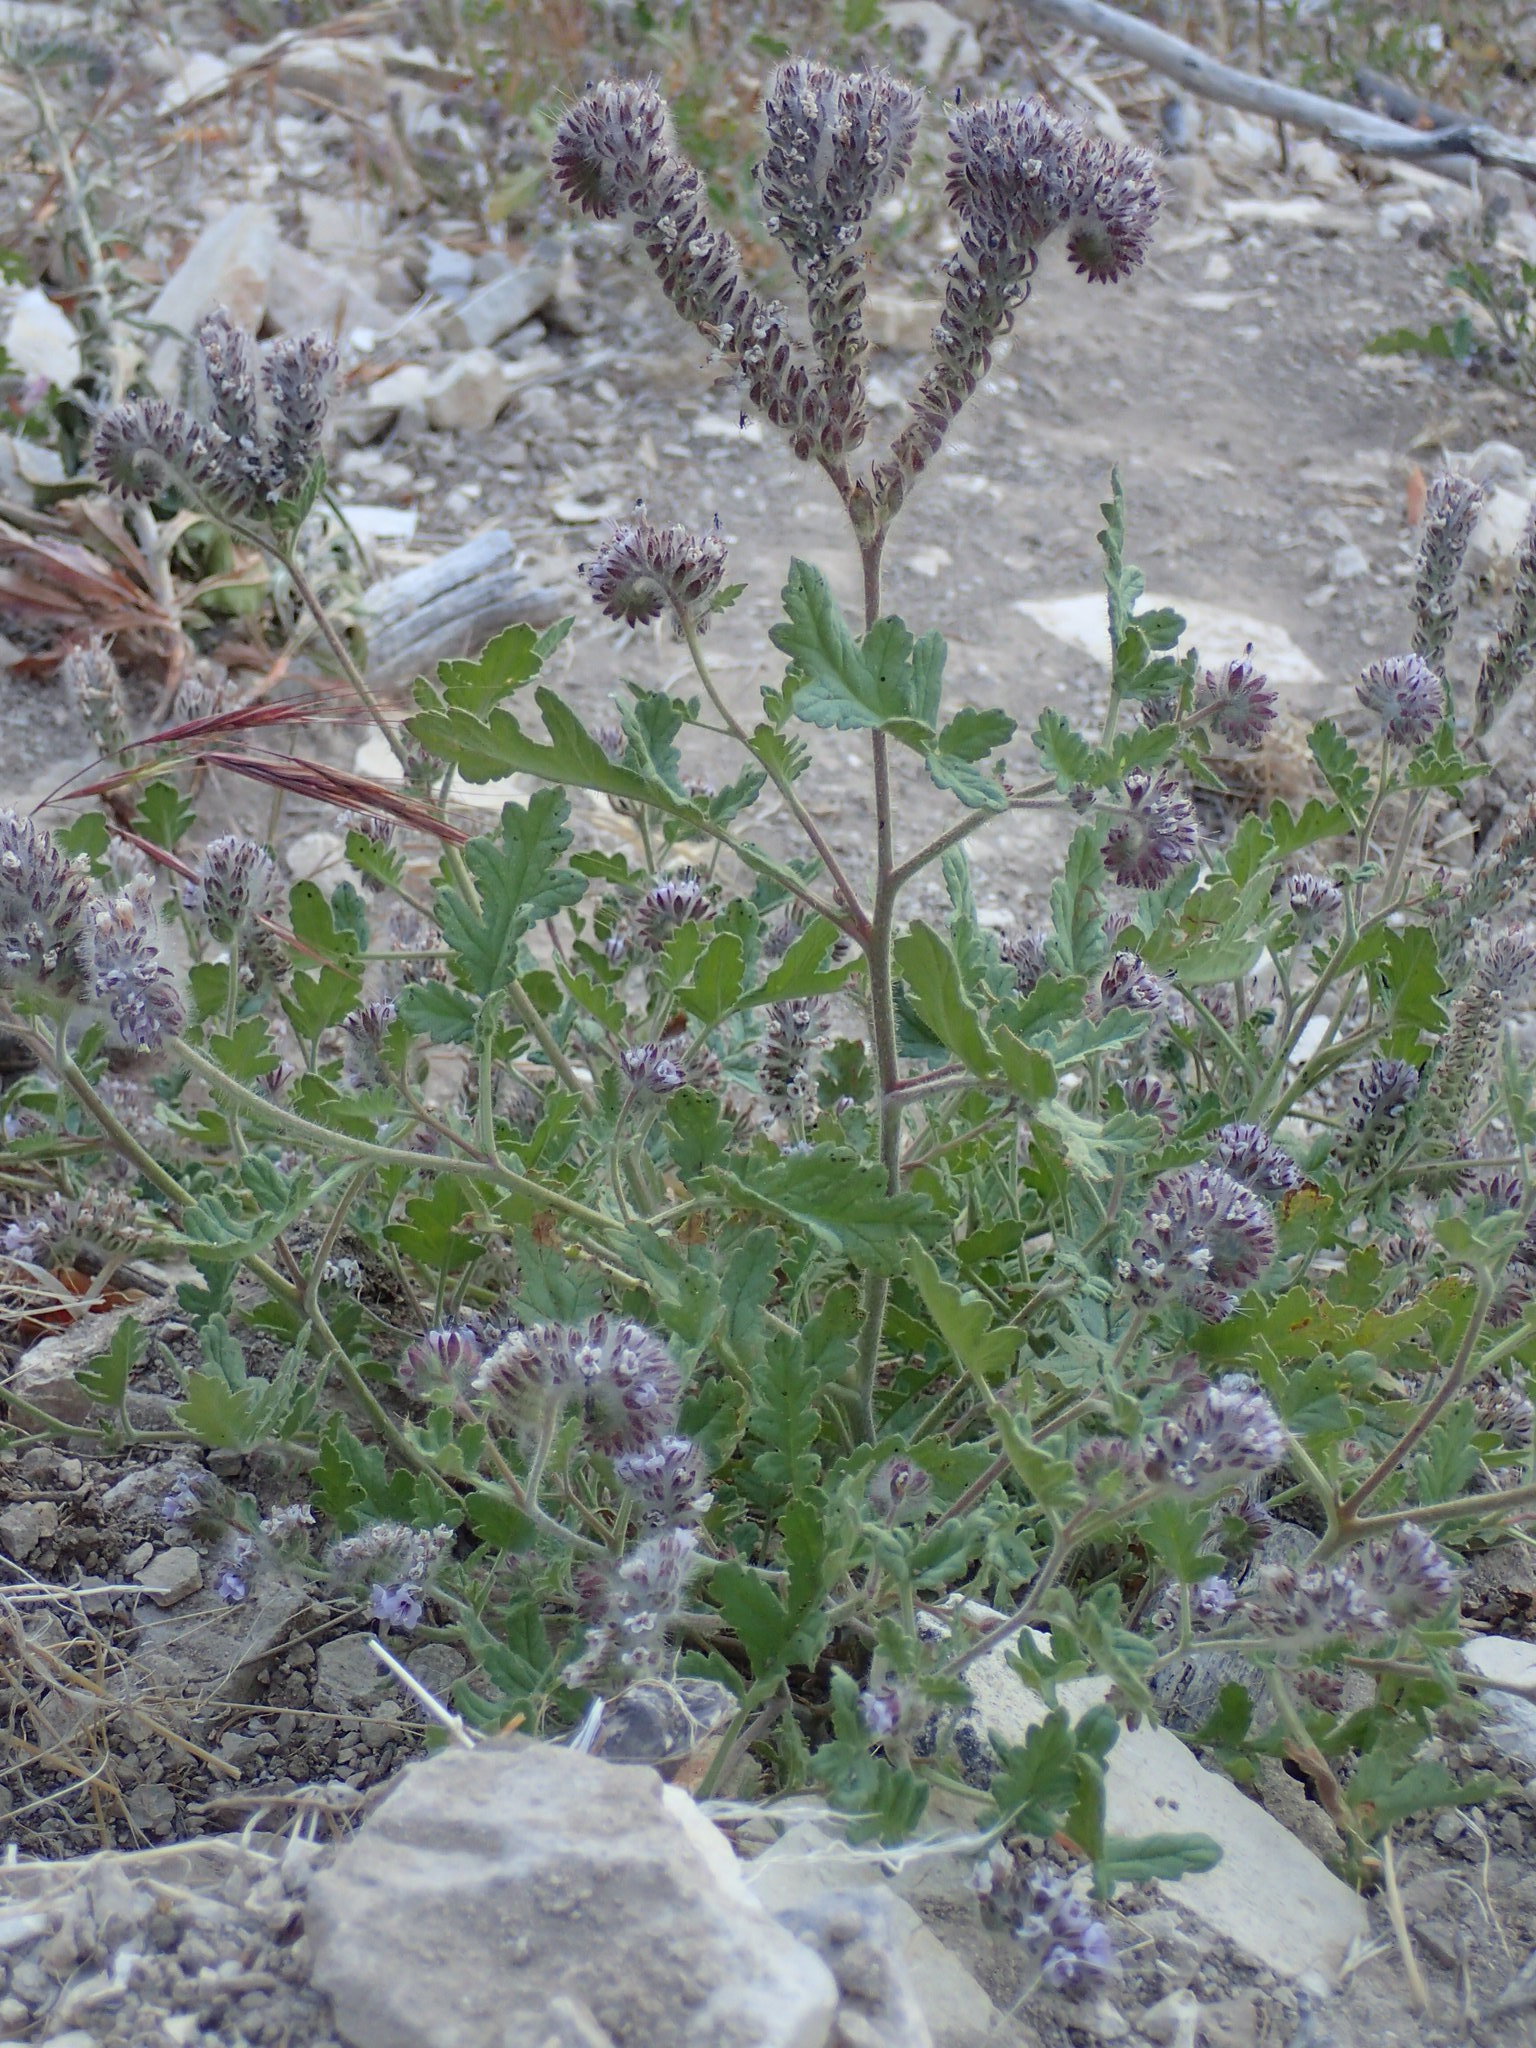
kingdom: Plantae
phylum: Tracheophyta
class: Magnoliopsida
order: Boraginales
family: Hydrophyllaceae
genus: Phacelia
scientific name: Phacelia hubbyi
